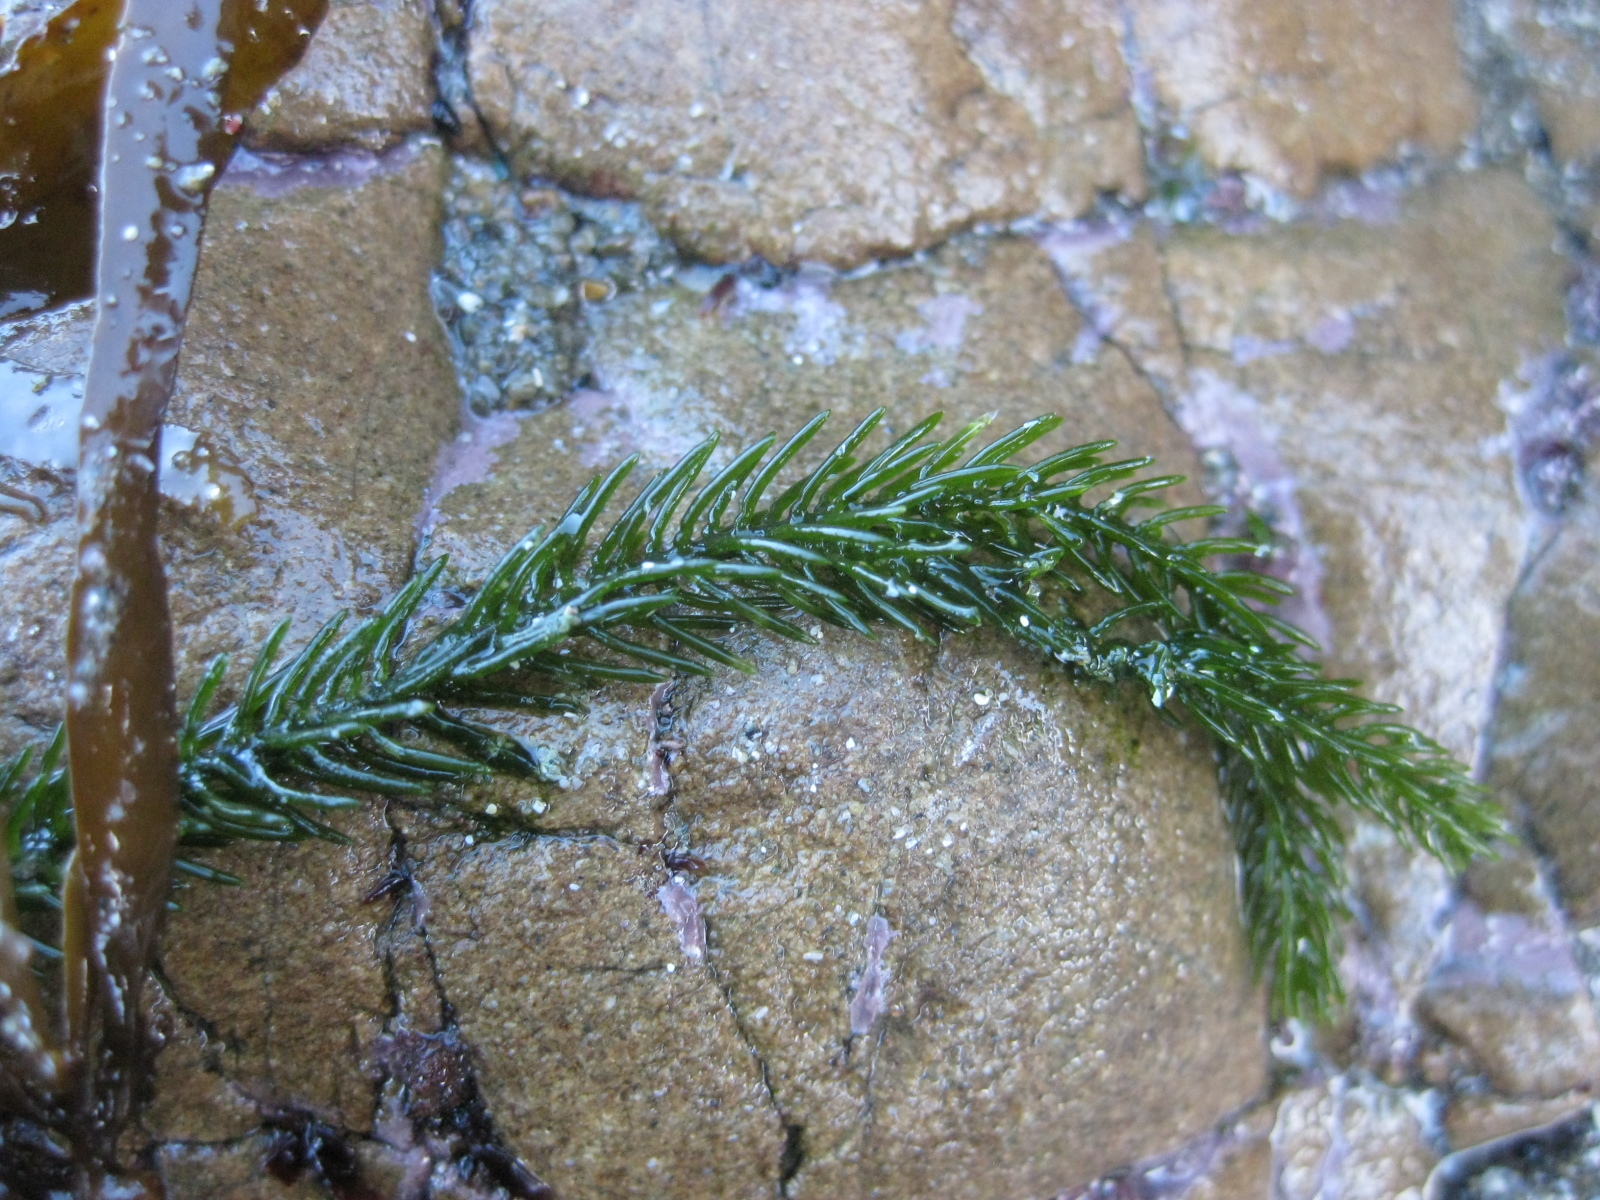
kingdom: Plantae
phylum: Chlorophyta
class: Ulvophyceae
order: Bryopsidales
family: Caulerpaceae
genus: Caulerpa
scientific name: Caulerpa brownii
